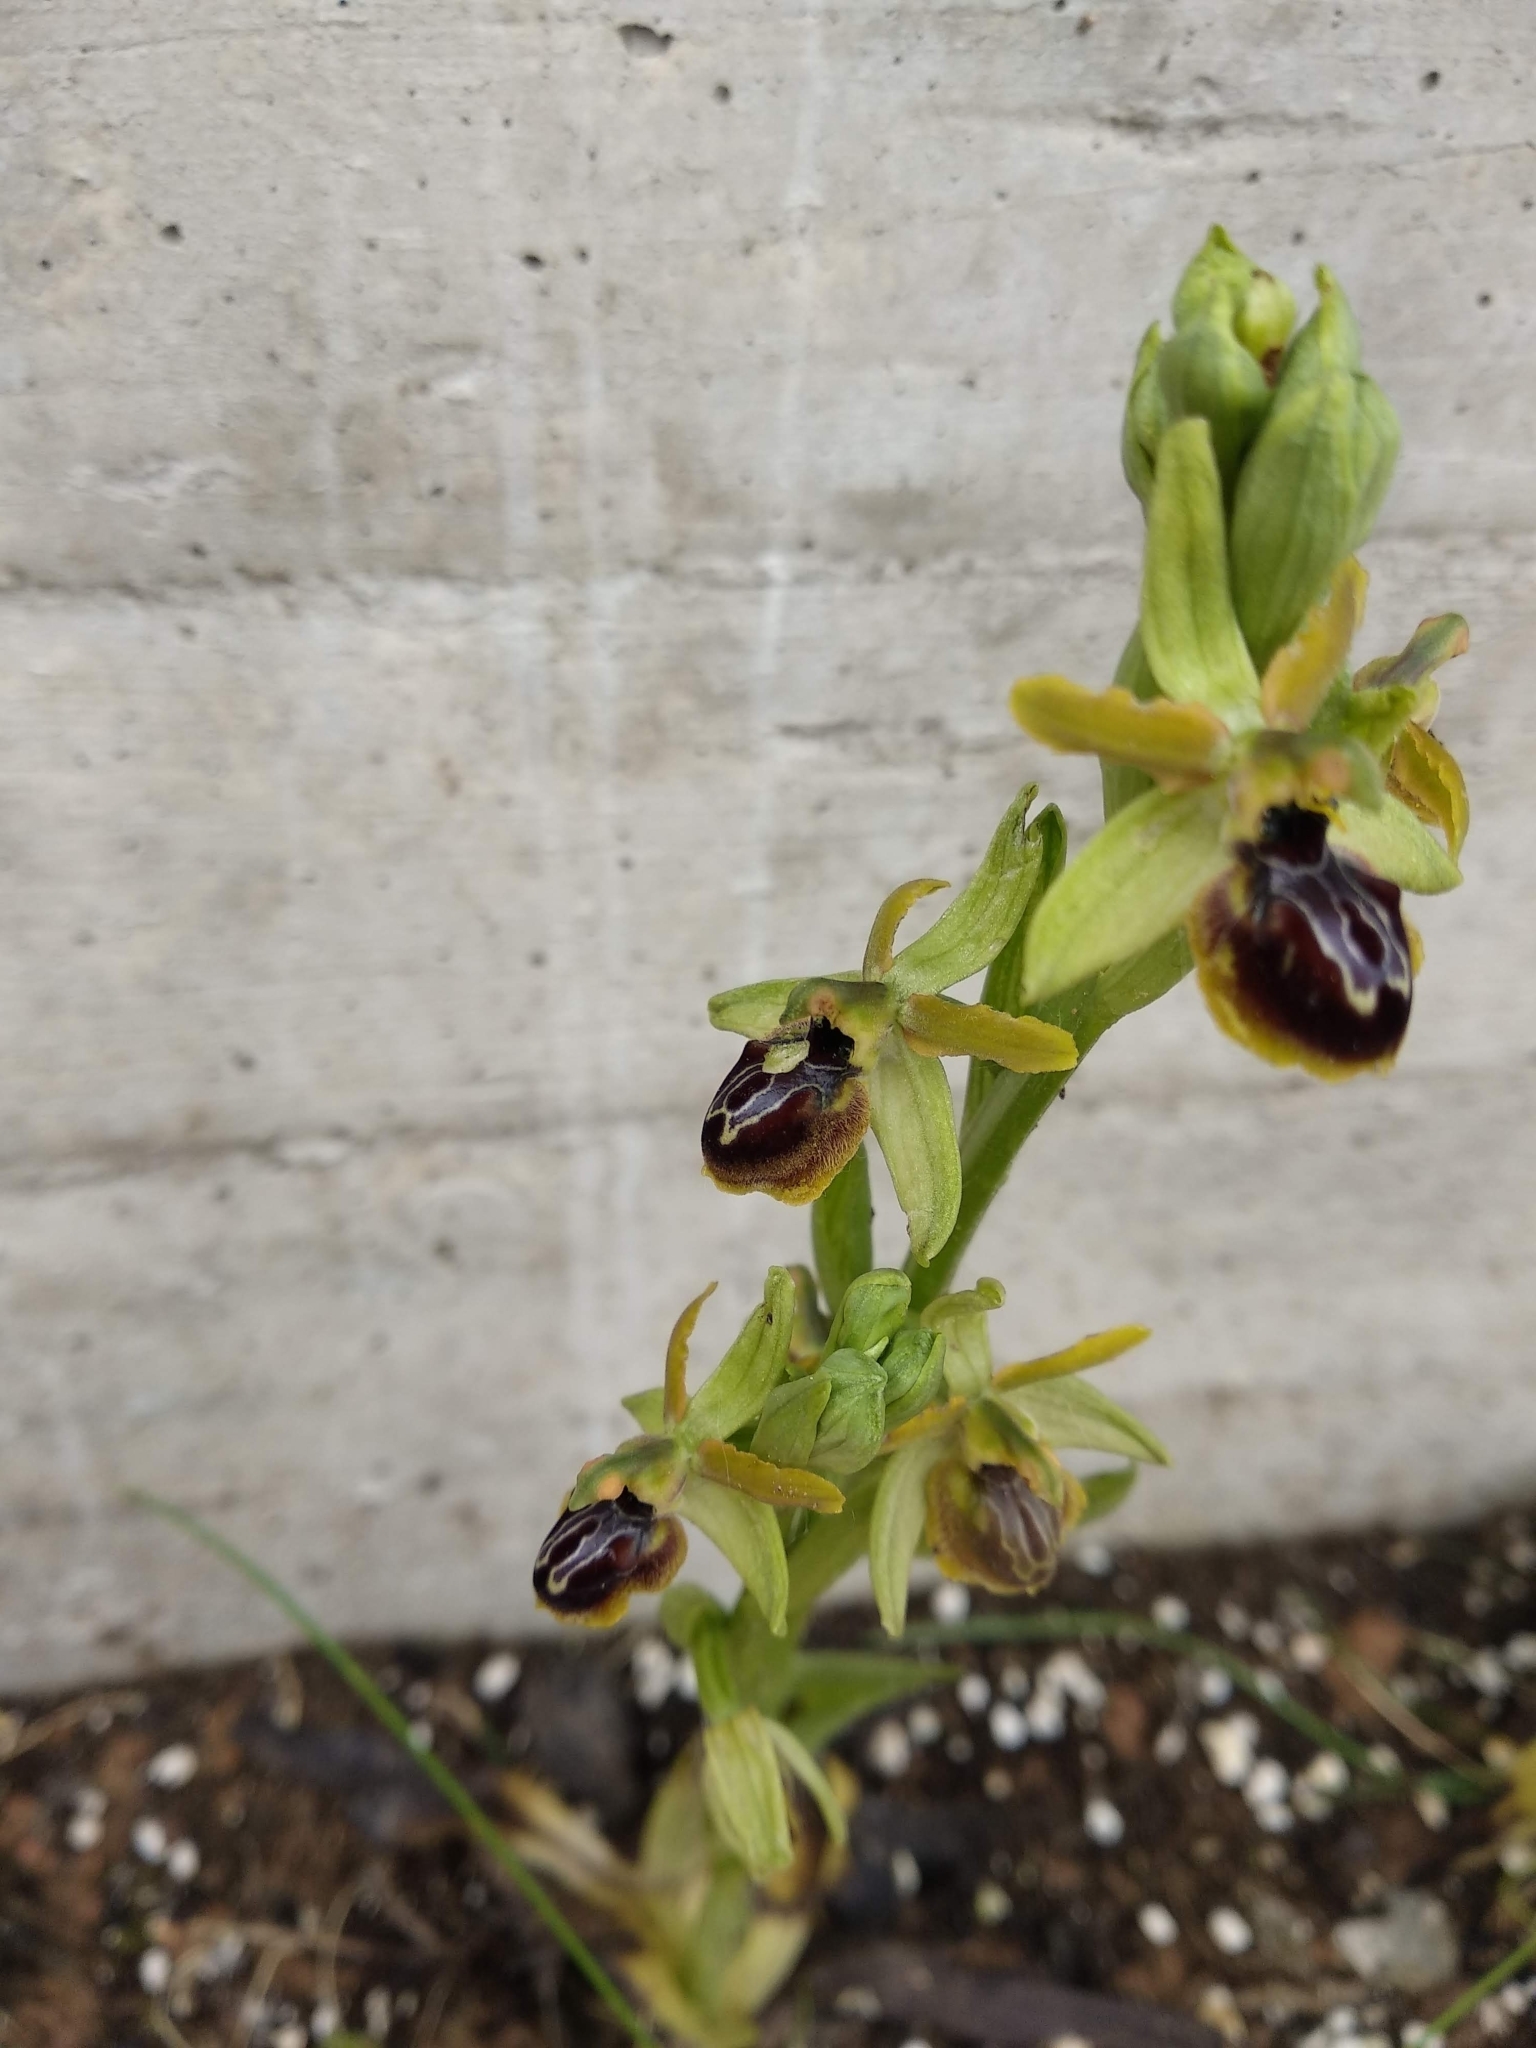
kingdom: Plantae
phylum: Tracheophyta
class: Liliopsida
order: Asparagales
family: Orchidaceae
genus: Ophrys
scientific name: Ophrys sphegodes
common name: Early spider-orchid
